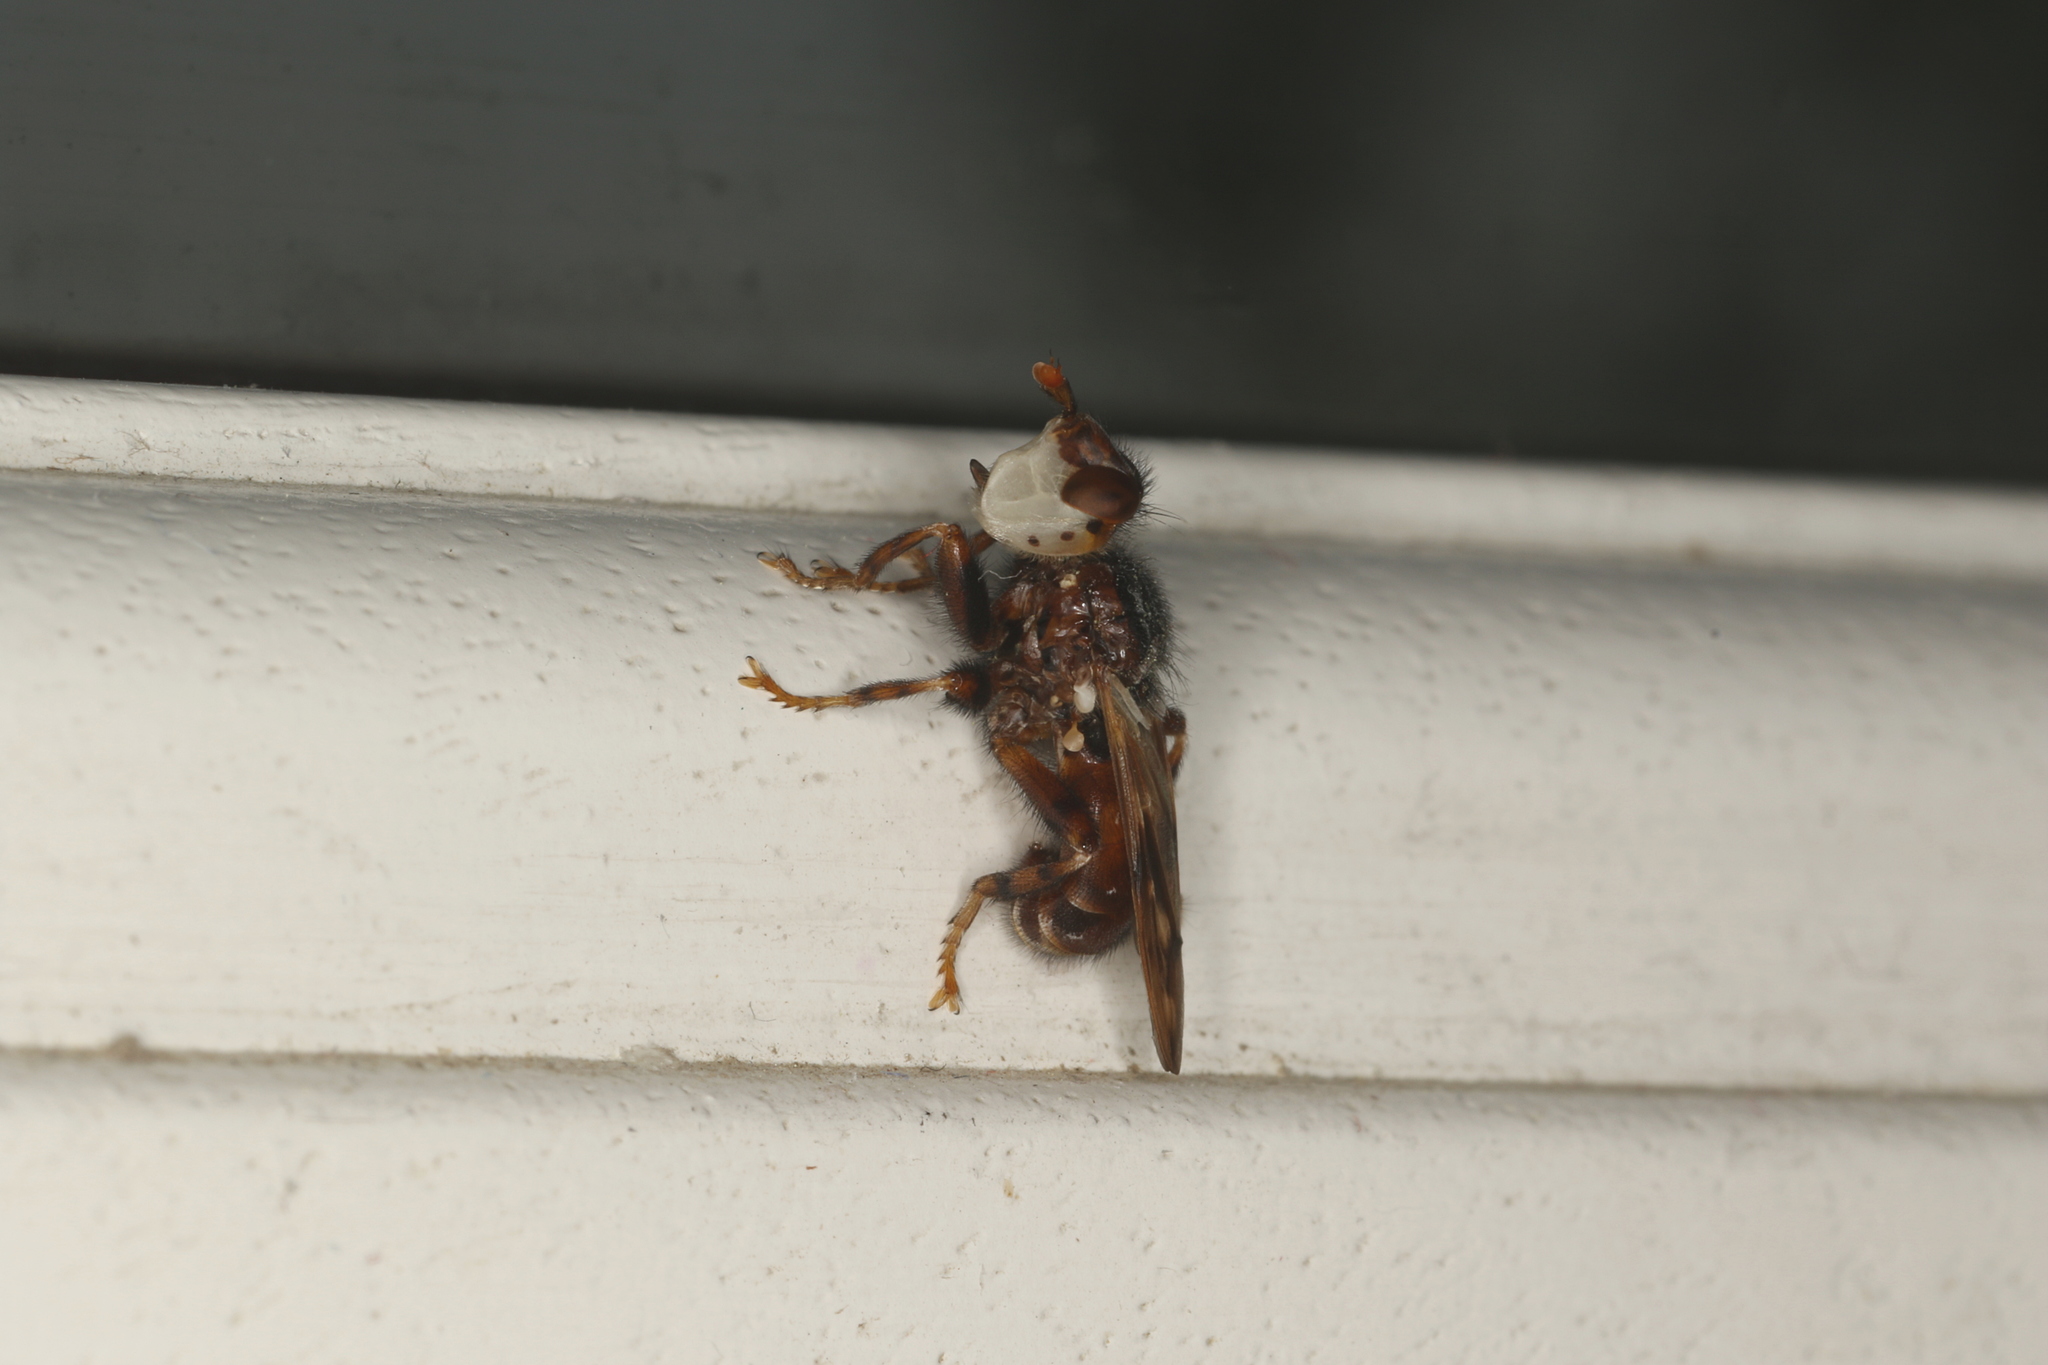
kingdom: Animalia
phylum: Arthropoda
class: Insecta
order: Diptera
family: Conopidae
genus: Myopa
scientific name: Myopa buccata
